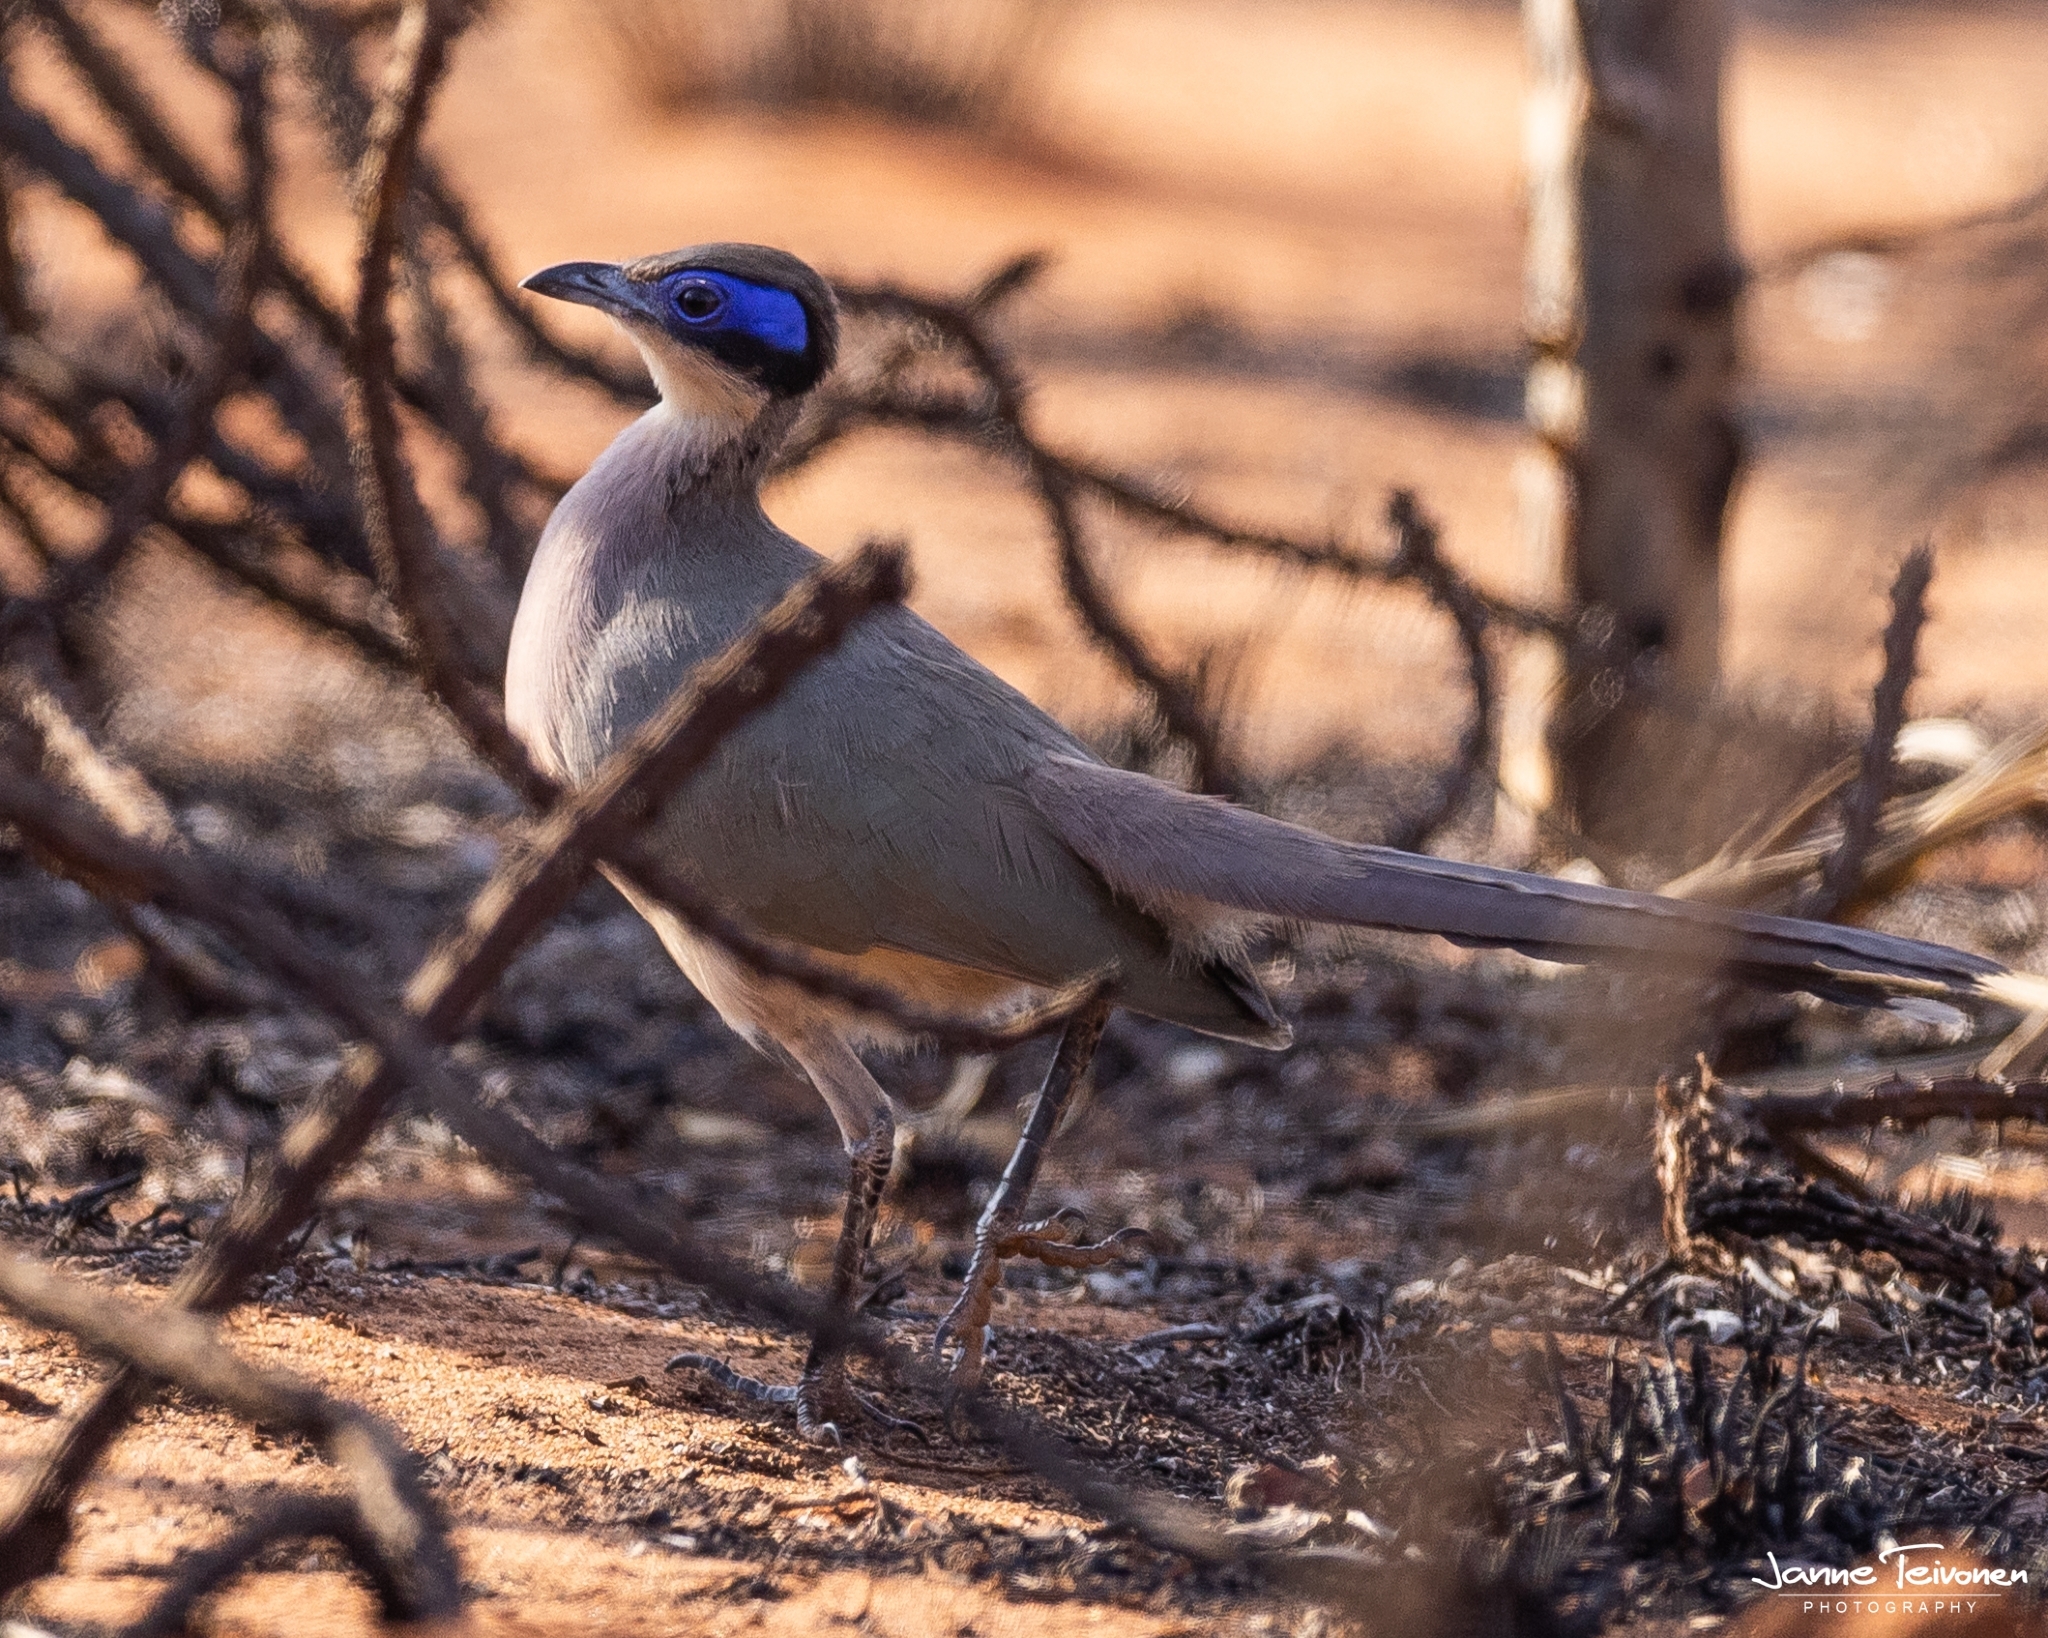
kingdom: Animalia
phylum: Chordata
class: Aves
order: Cuculiformes
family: Cuculidae
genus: Coua
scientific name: Coua ruficeps
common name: Red-capped coua
